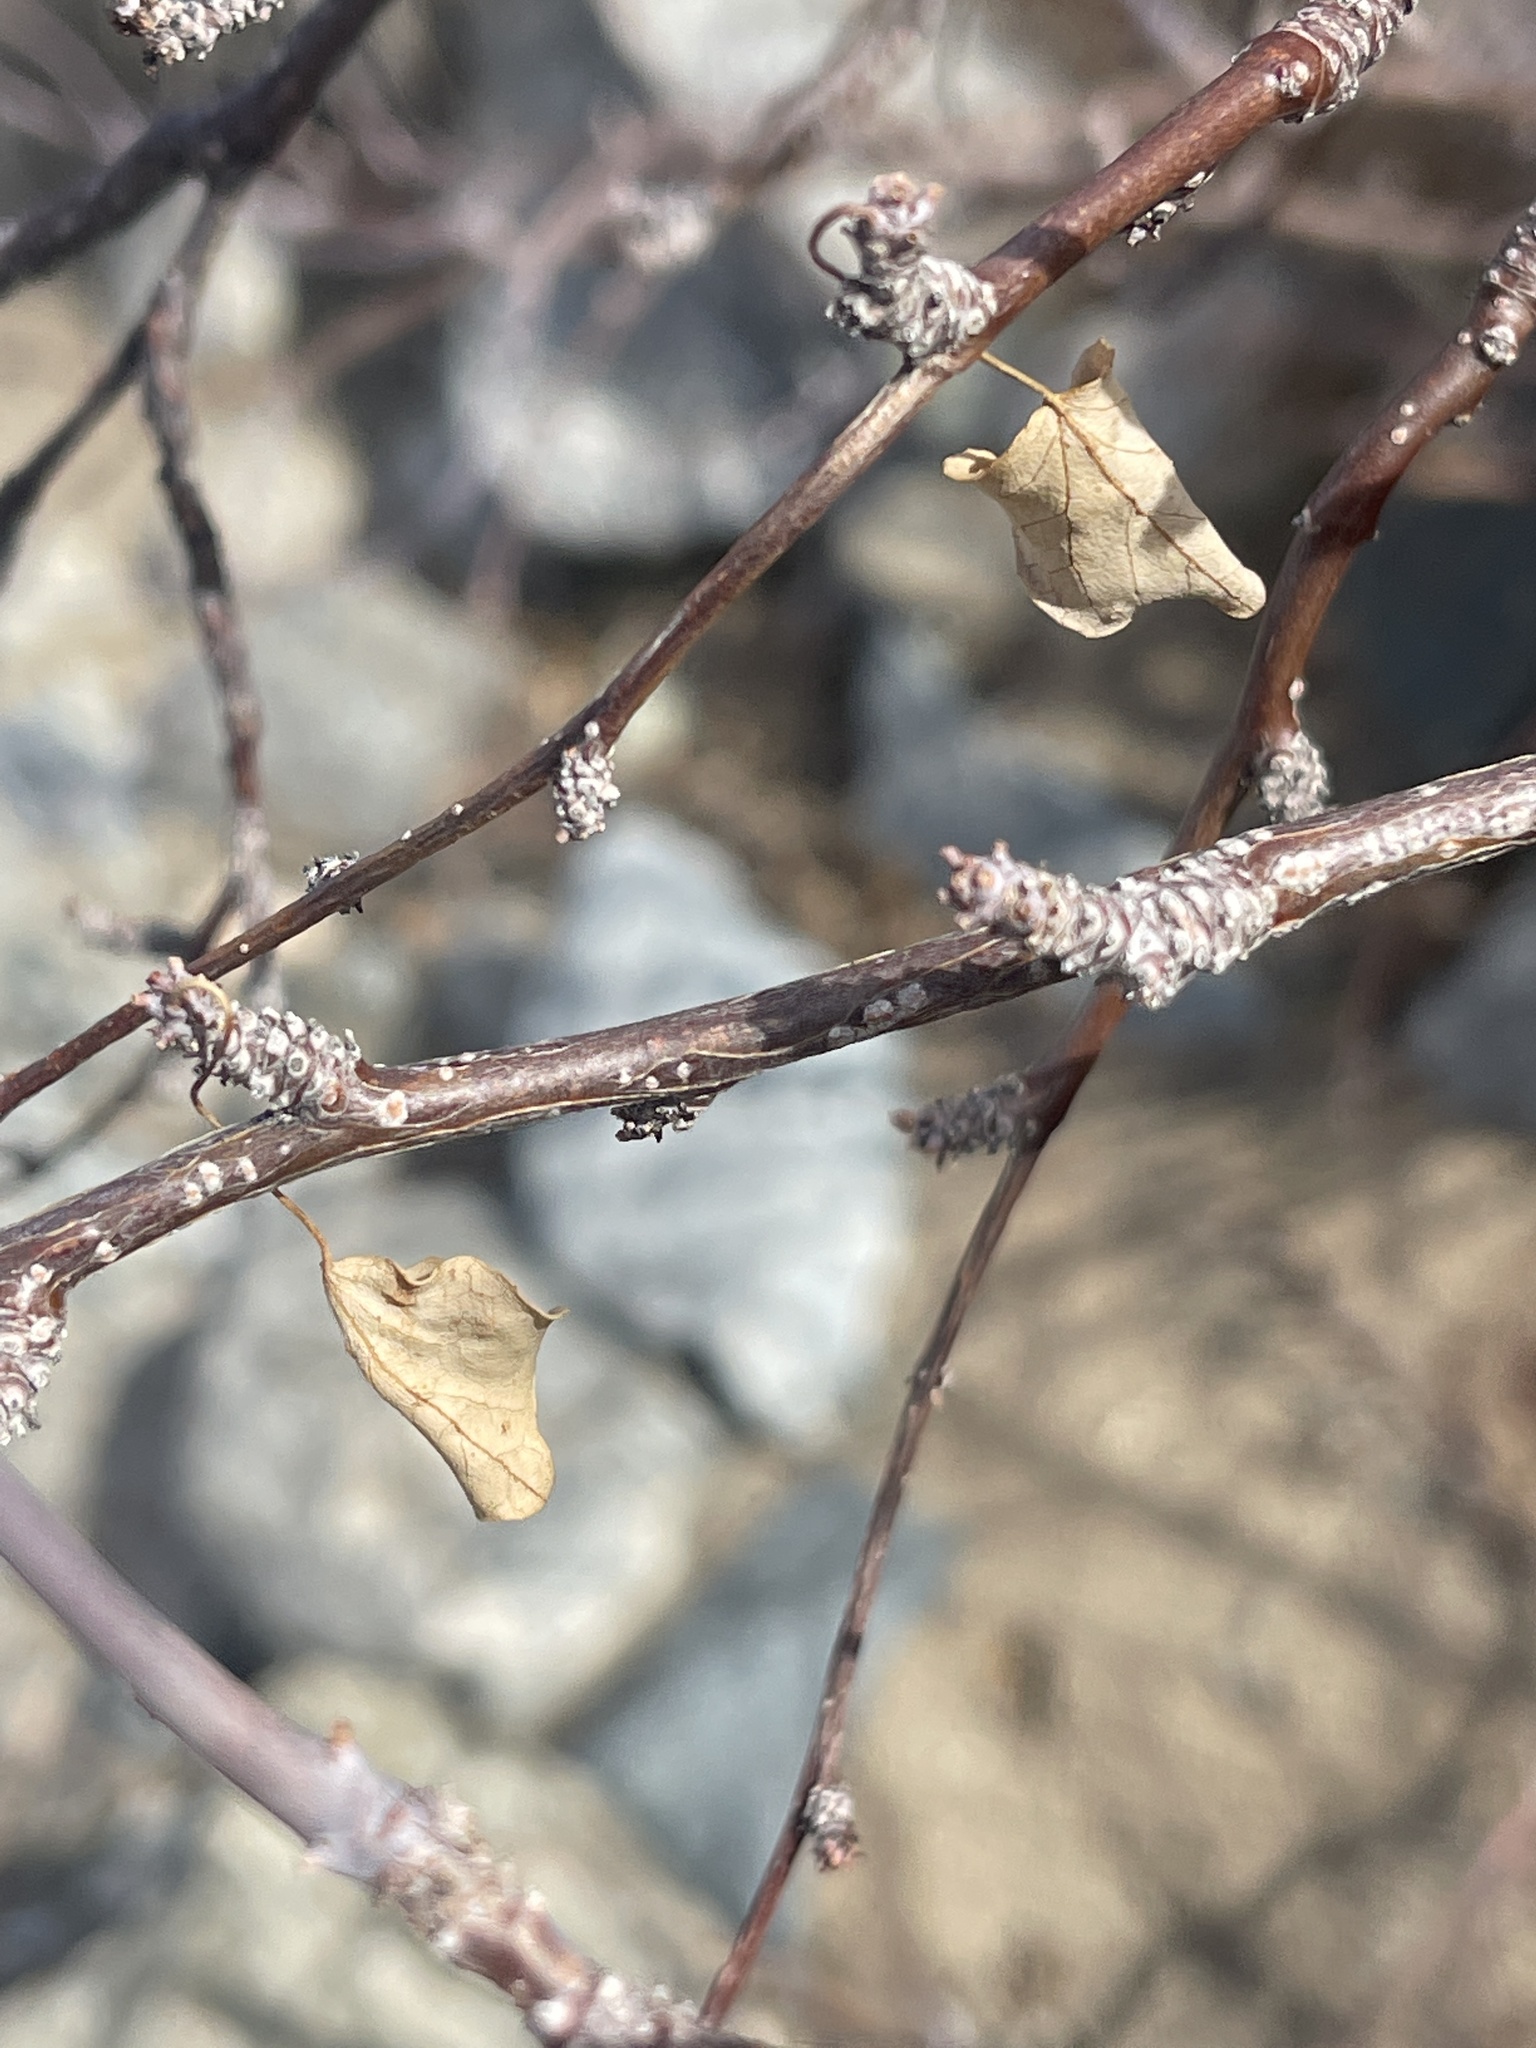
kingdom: Plantae
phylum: Tracheophyta
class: Magnoliopsida
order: Malpighiales
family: Euphorbiaceae
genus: Jatropha
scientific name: Jatropha cardiophylla
